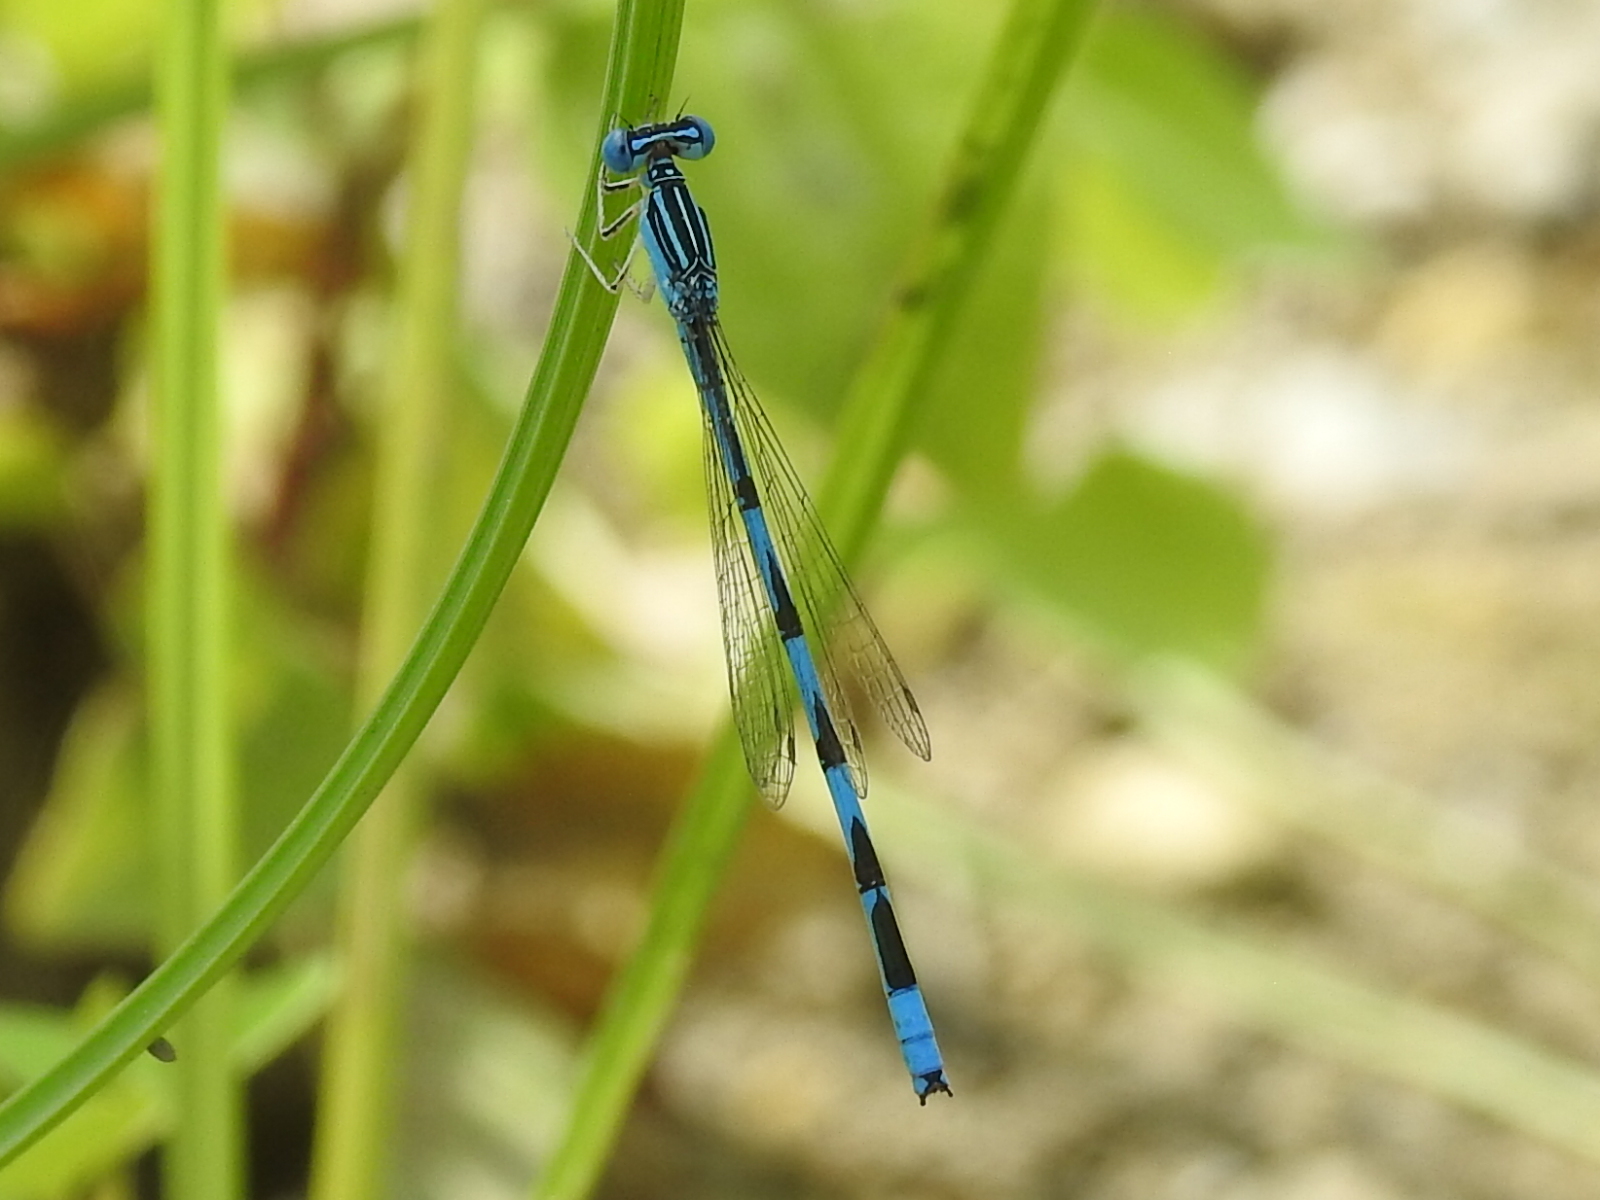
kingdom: Animalia
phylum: Arthropoda
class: Insecta
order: Odonata
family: Coenagrionidae
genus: Enallagma
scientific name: Enallagma basidens
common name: Double-striped bluet
